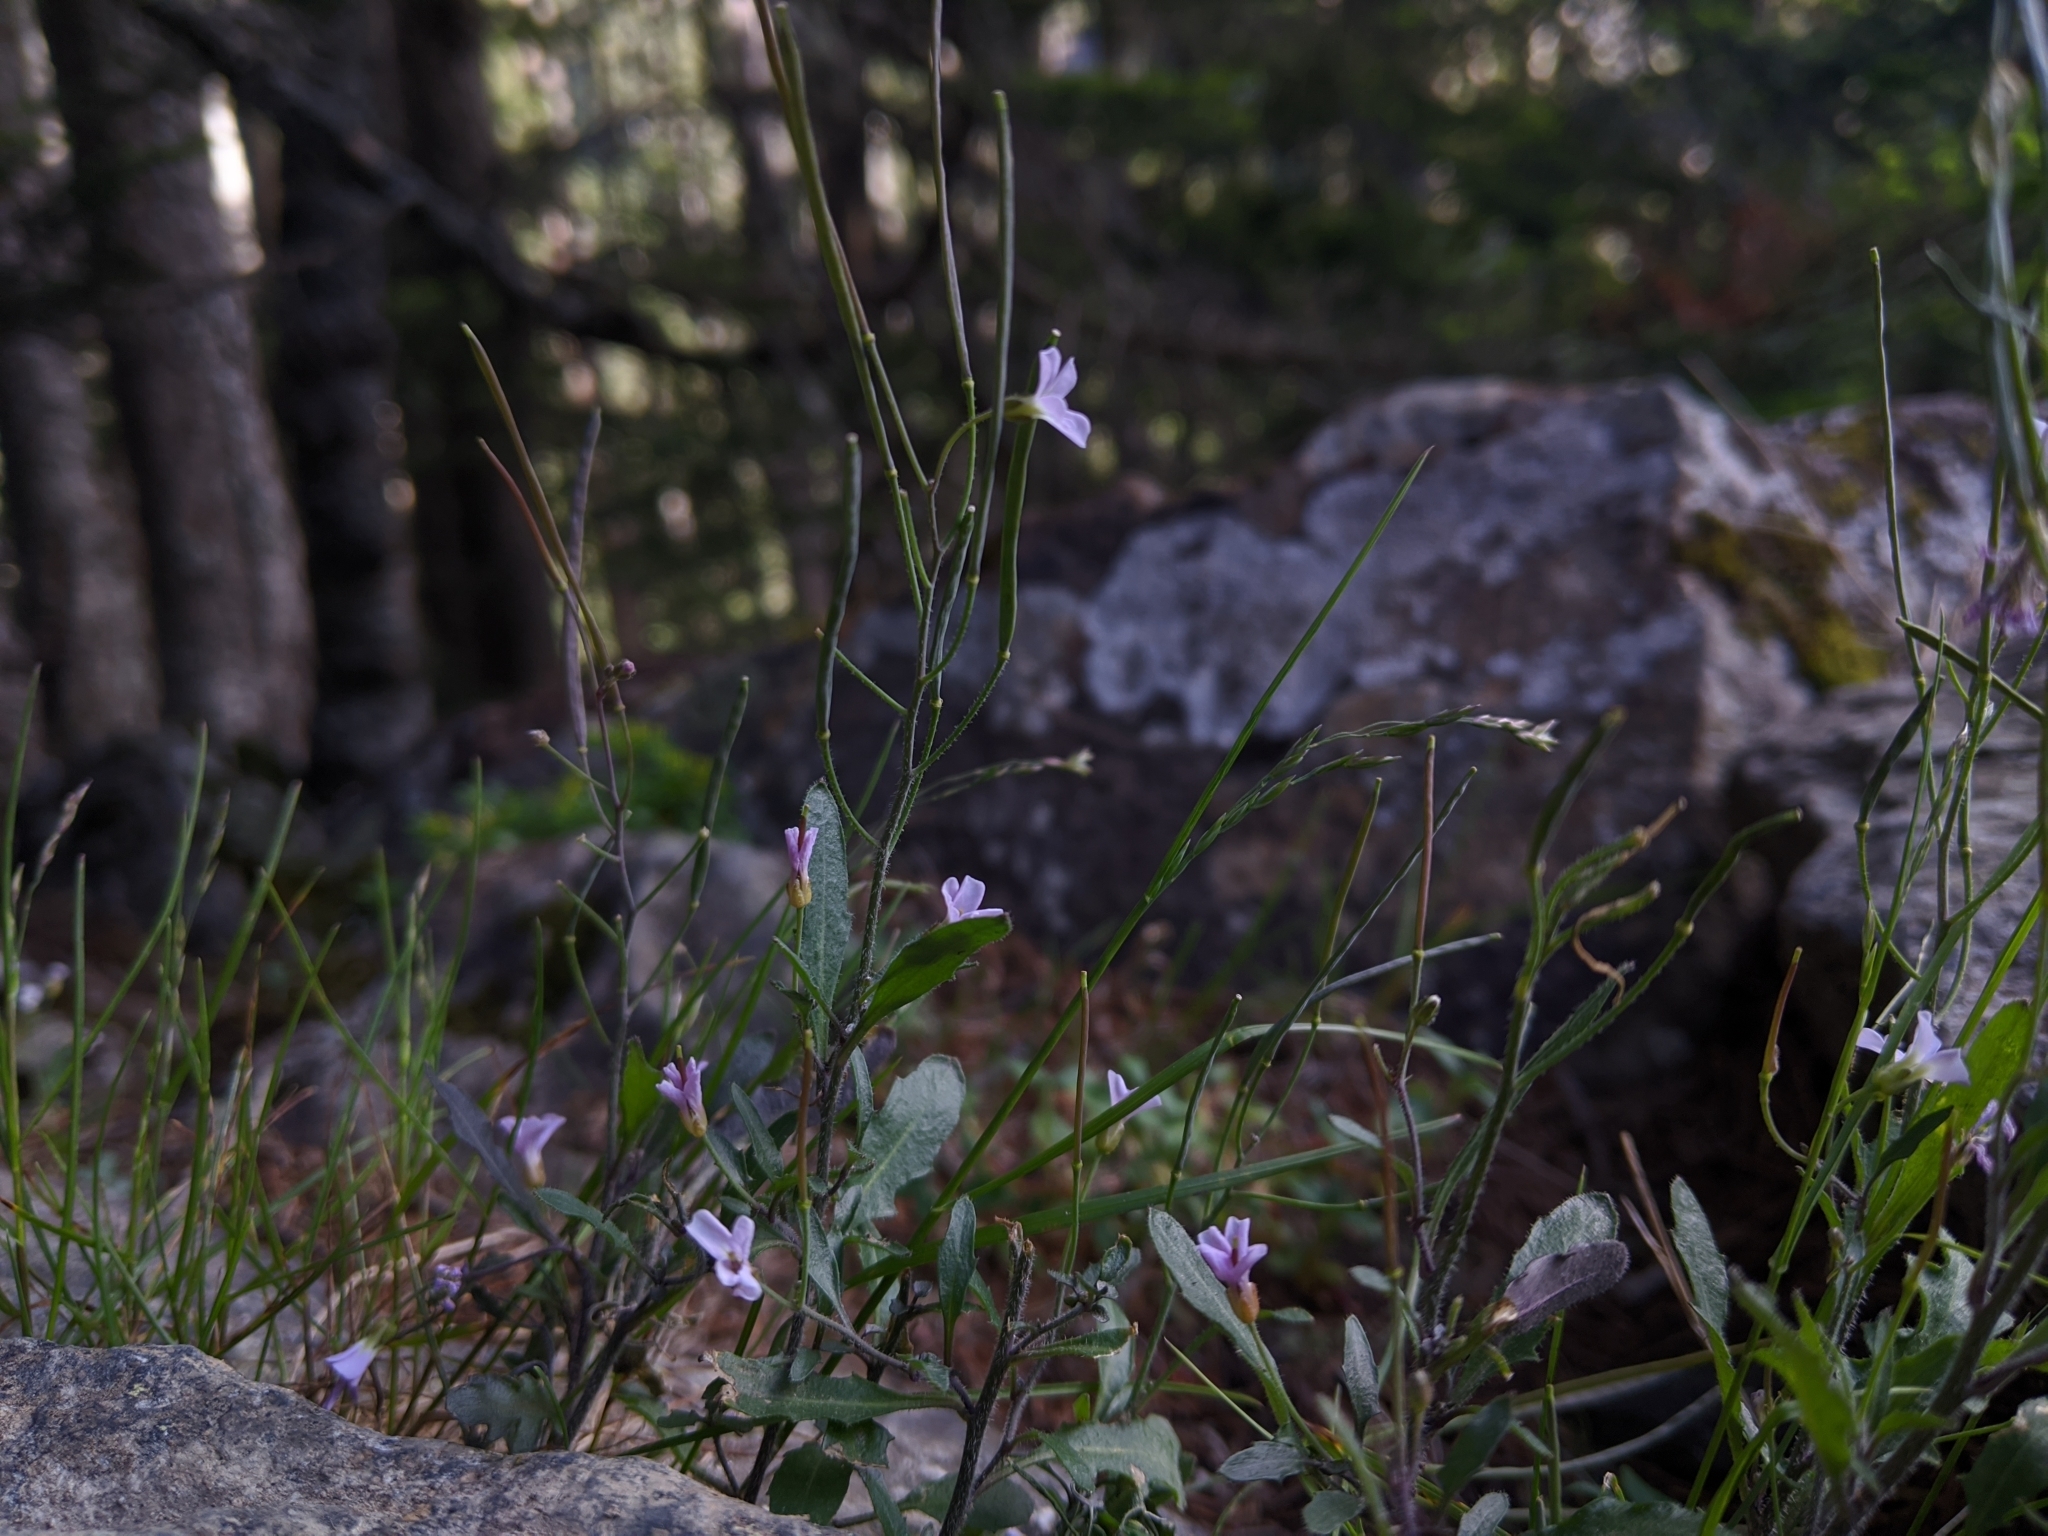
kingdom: Plantae
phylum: Tracheophyta
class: Magnoliopsida
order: Brassicales
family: Brassicaceae
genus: Arabidopsis
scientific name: Arabidopsis lyrata
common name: Lyrate rockcress
